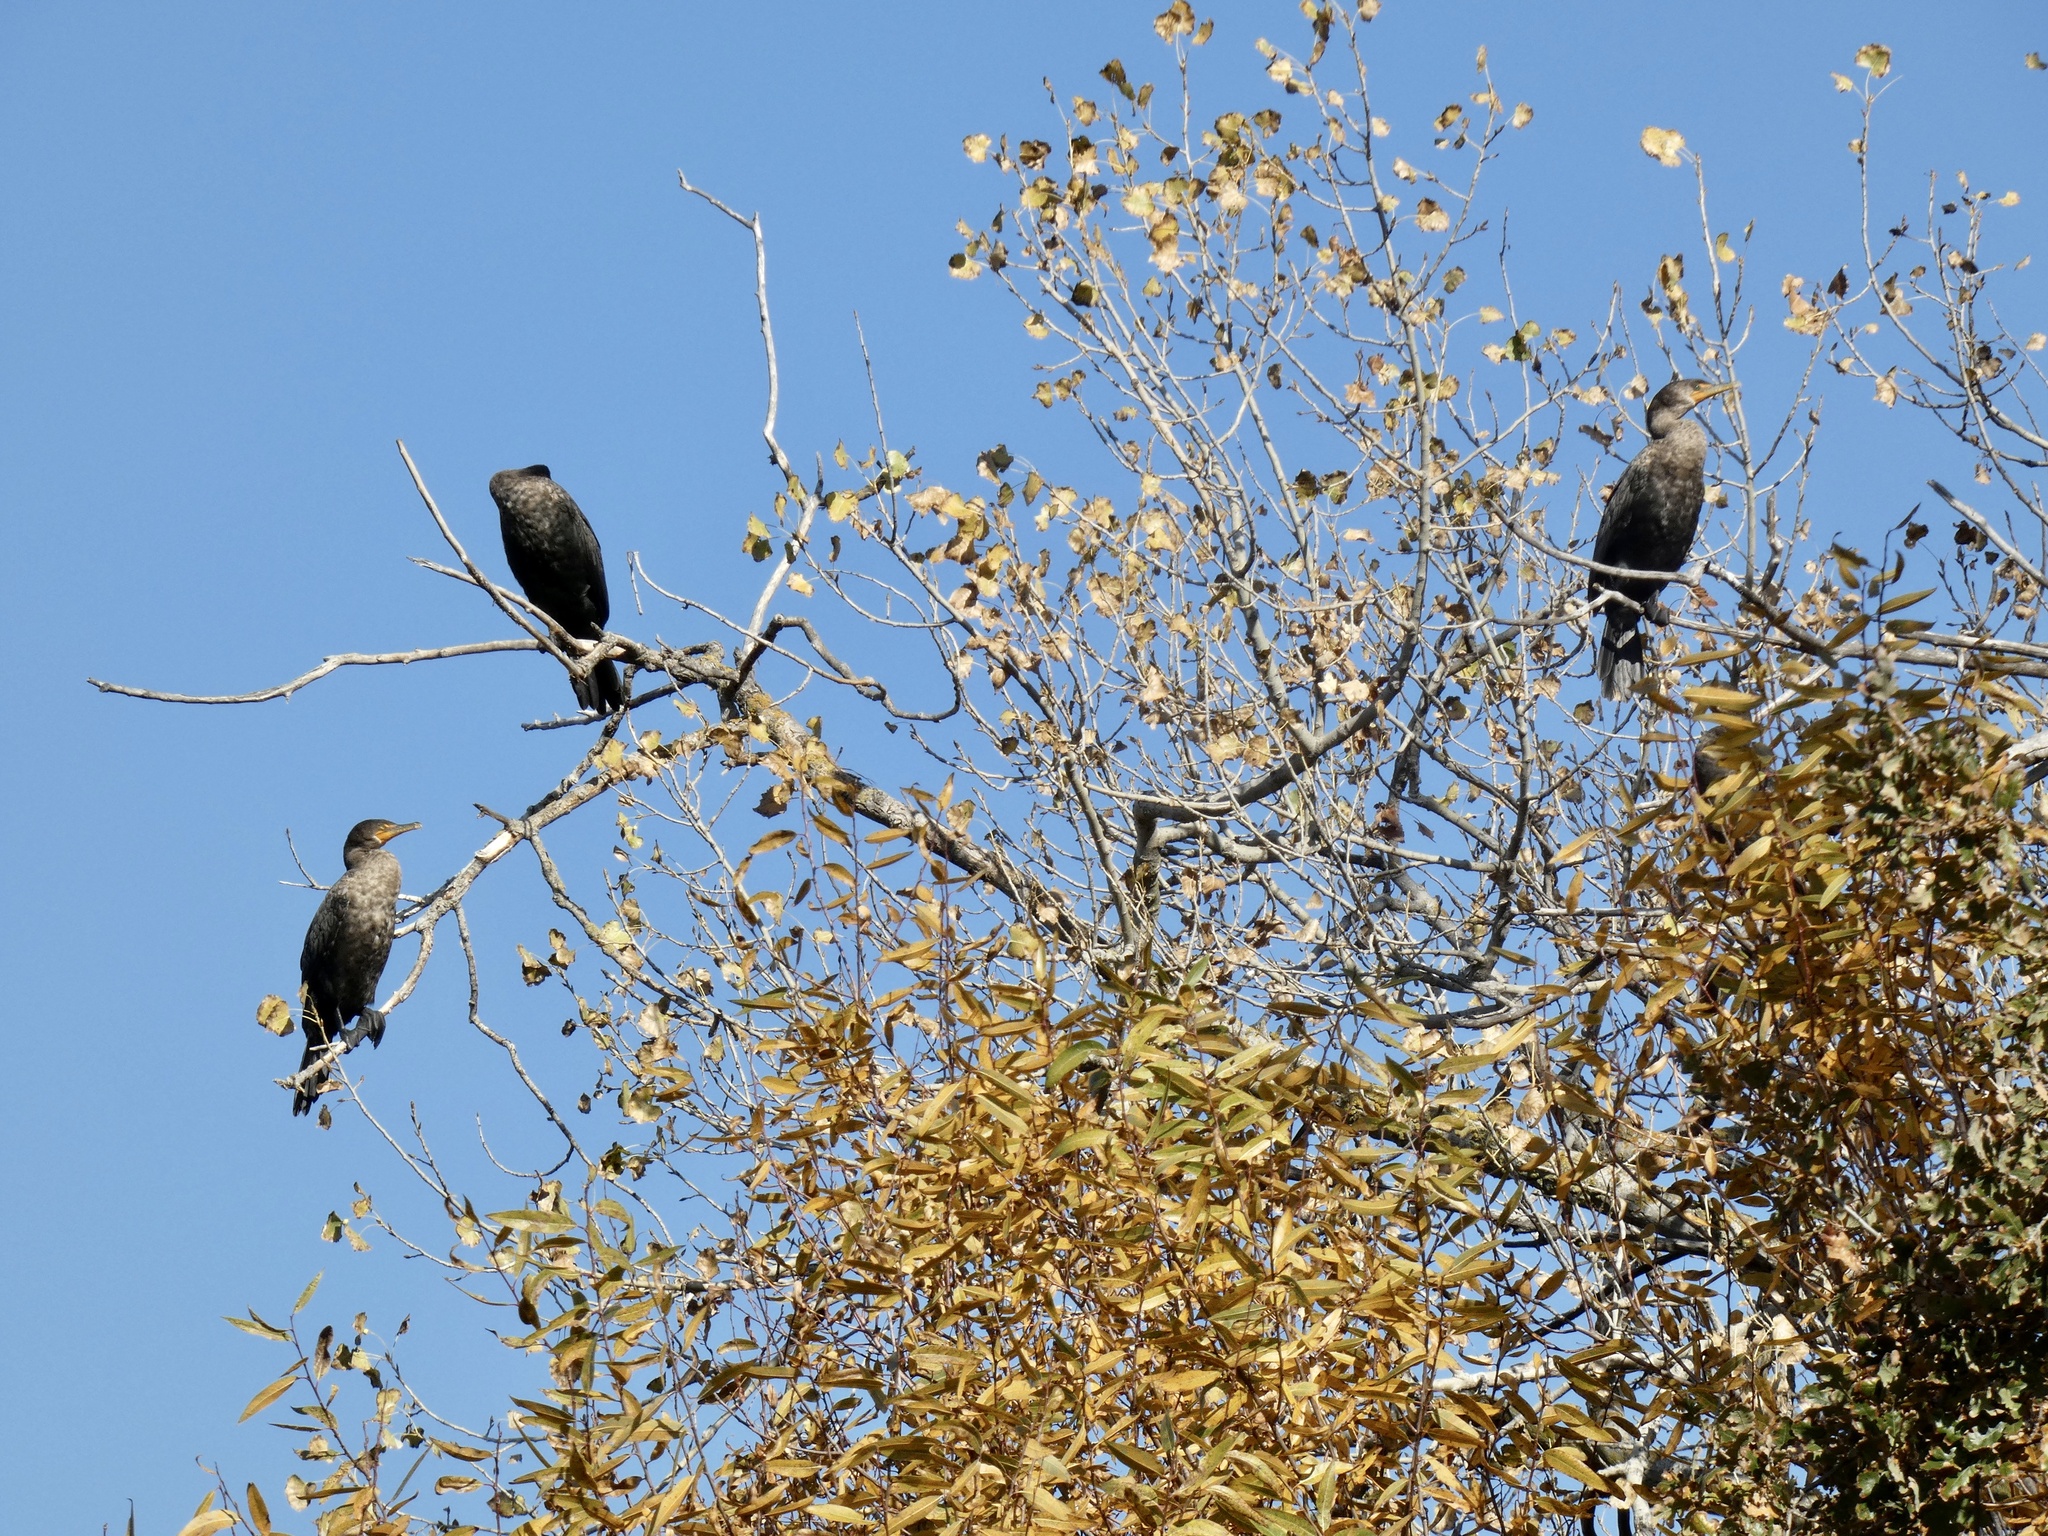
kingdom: Animalia
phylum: Chordata
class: Aves
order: Suliformes
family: Phalacrocoracidae
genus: Phalacrocorax
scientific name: Phalacrocorax auritus
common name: Double-crested cormorant
